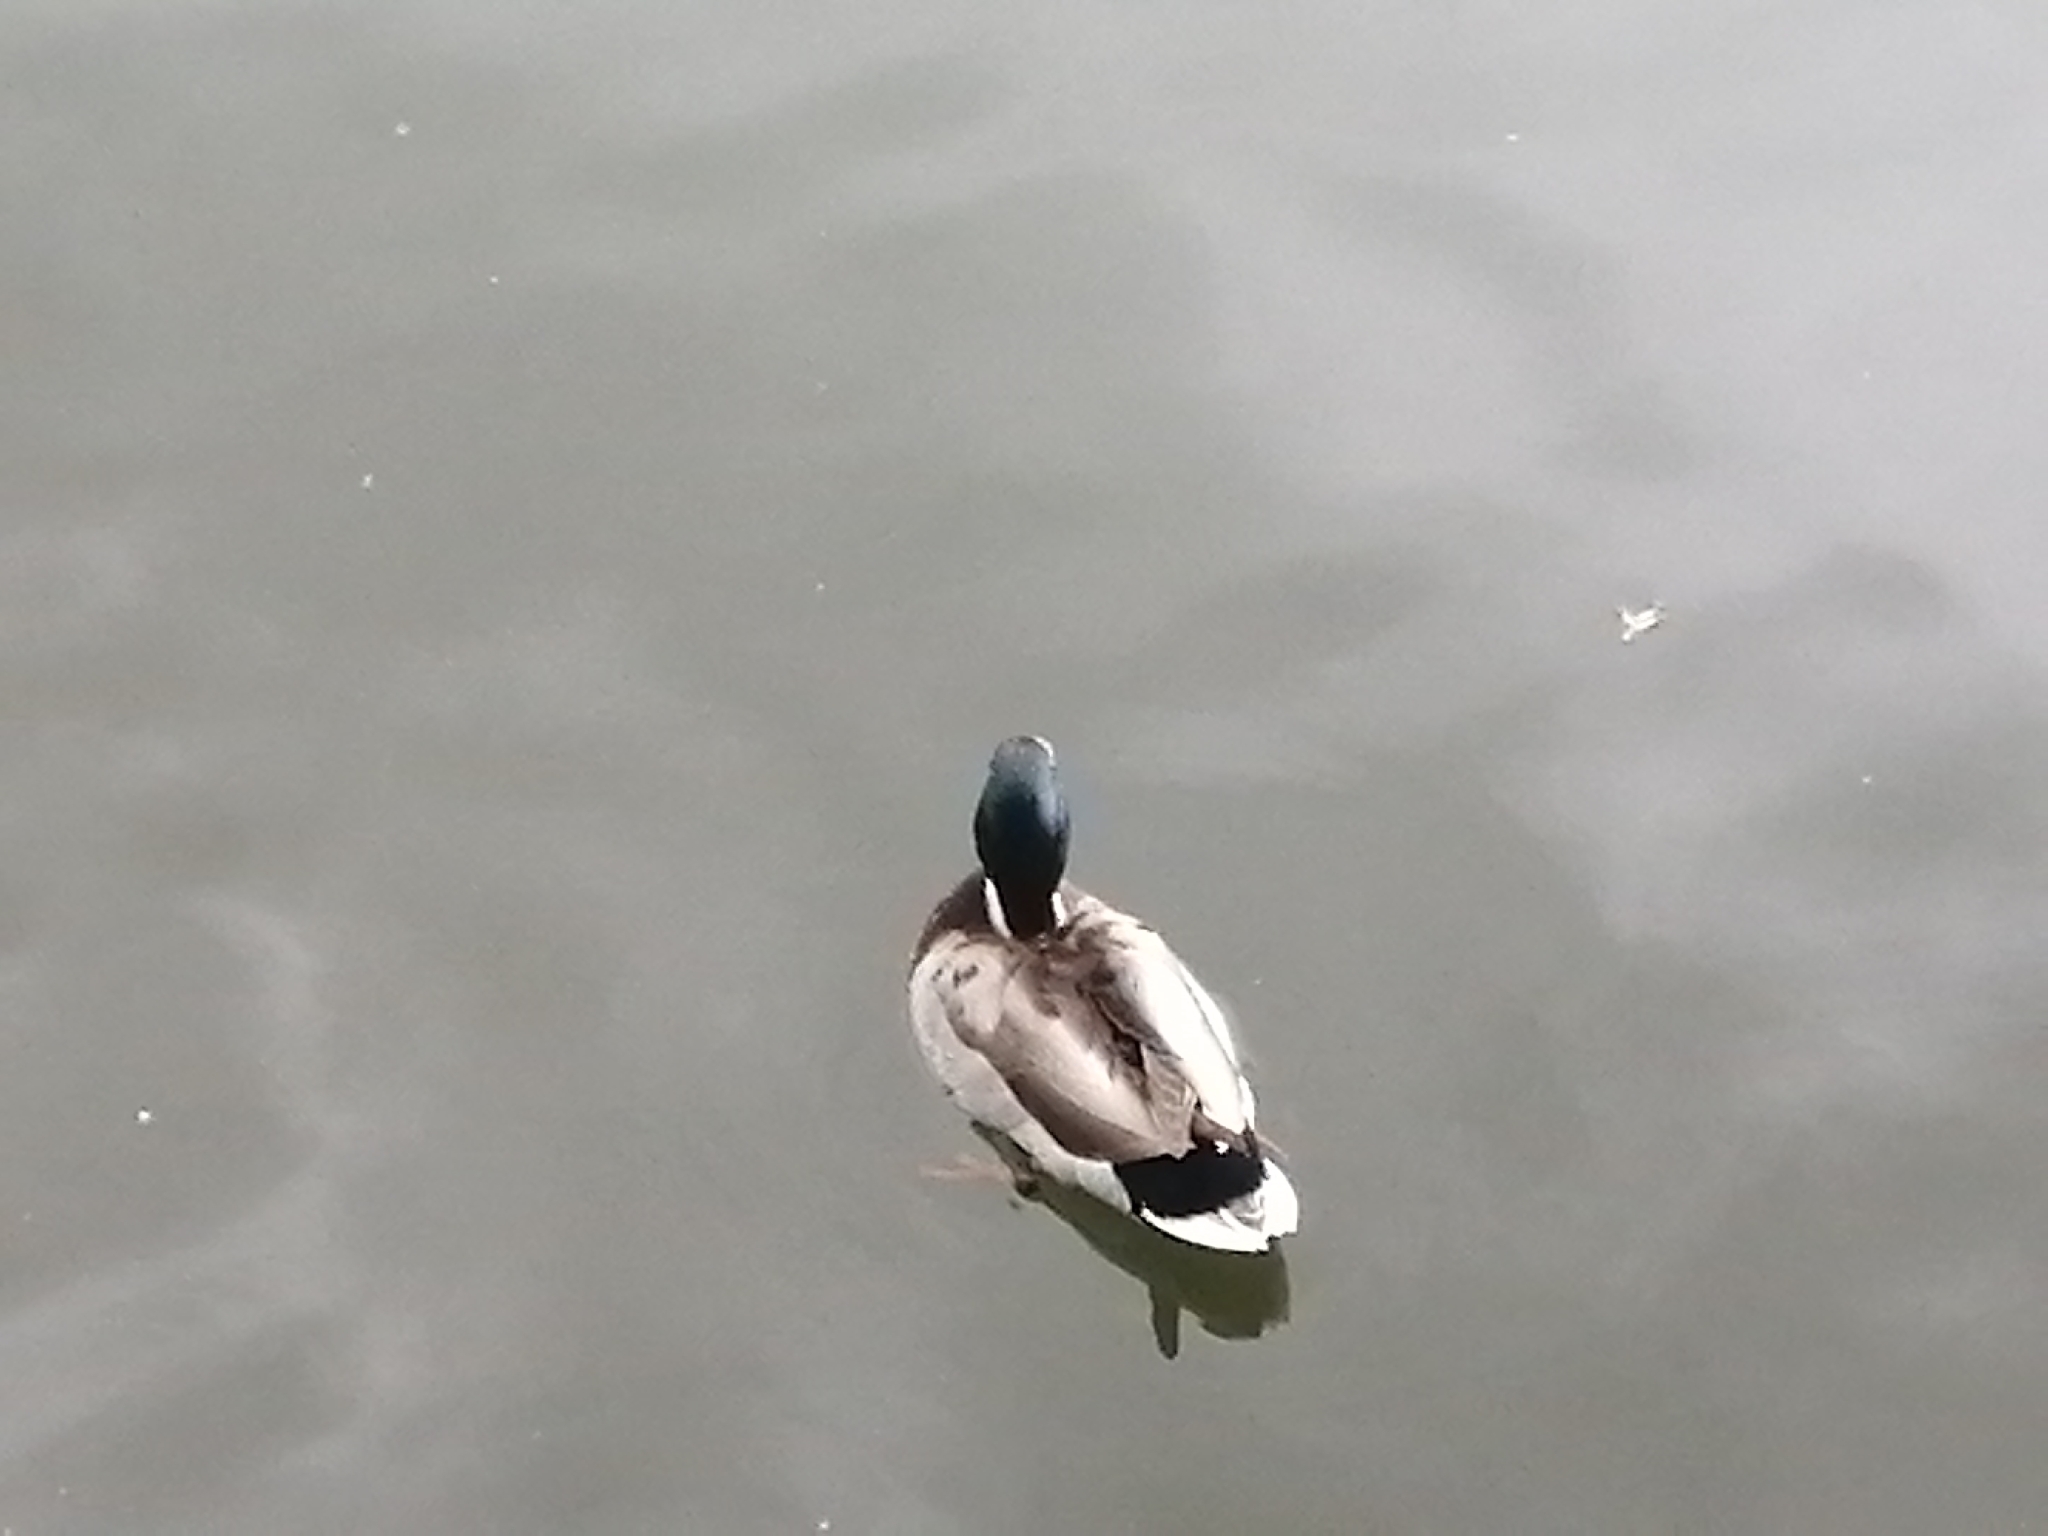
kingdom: Animalia
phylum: Chordata
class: Aves
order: Anseriformes
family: Anatidae
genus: Anas
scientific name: Anas platyrhynchos
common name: Mallard
